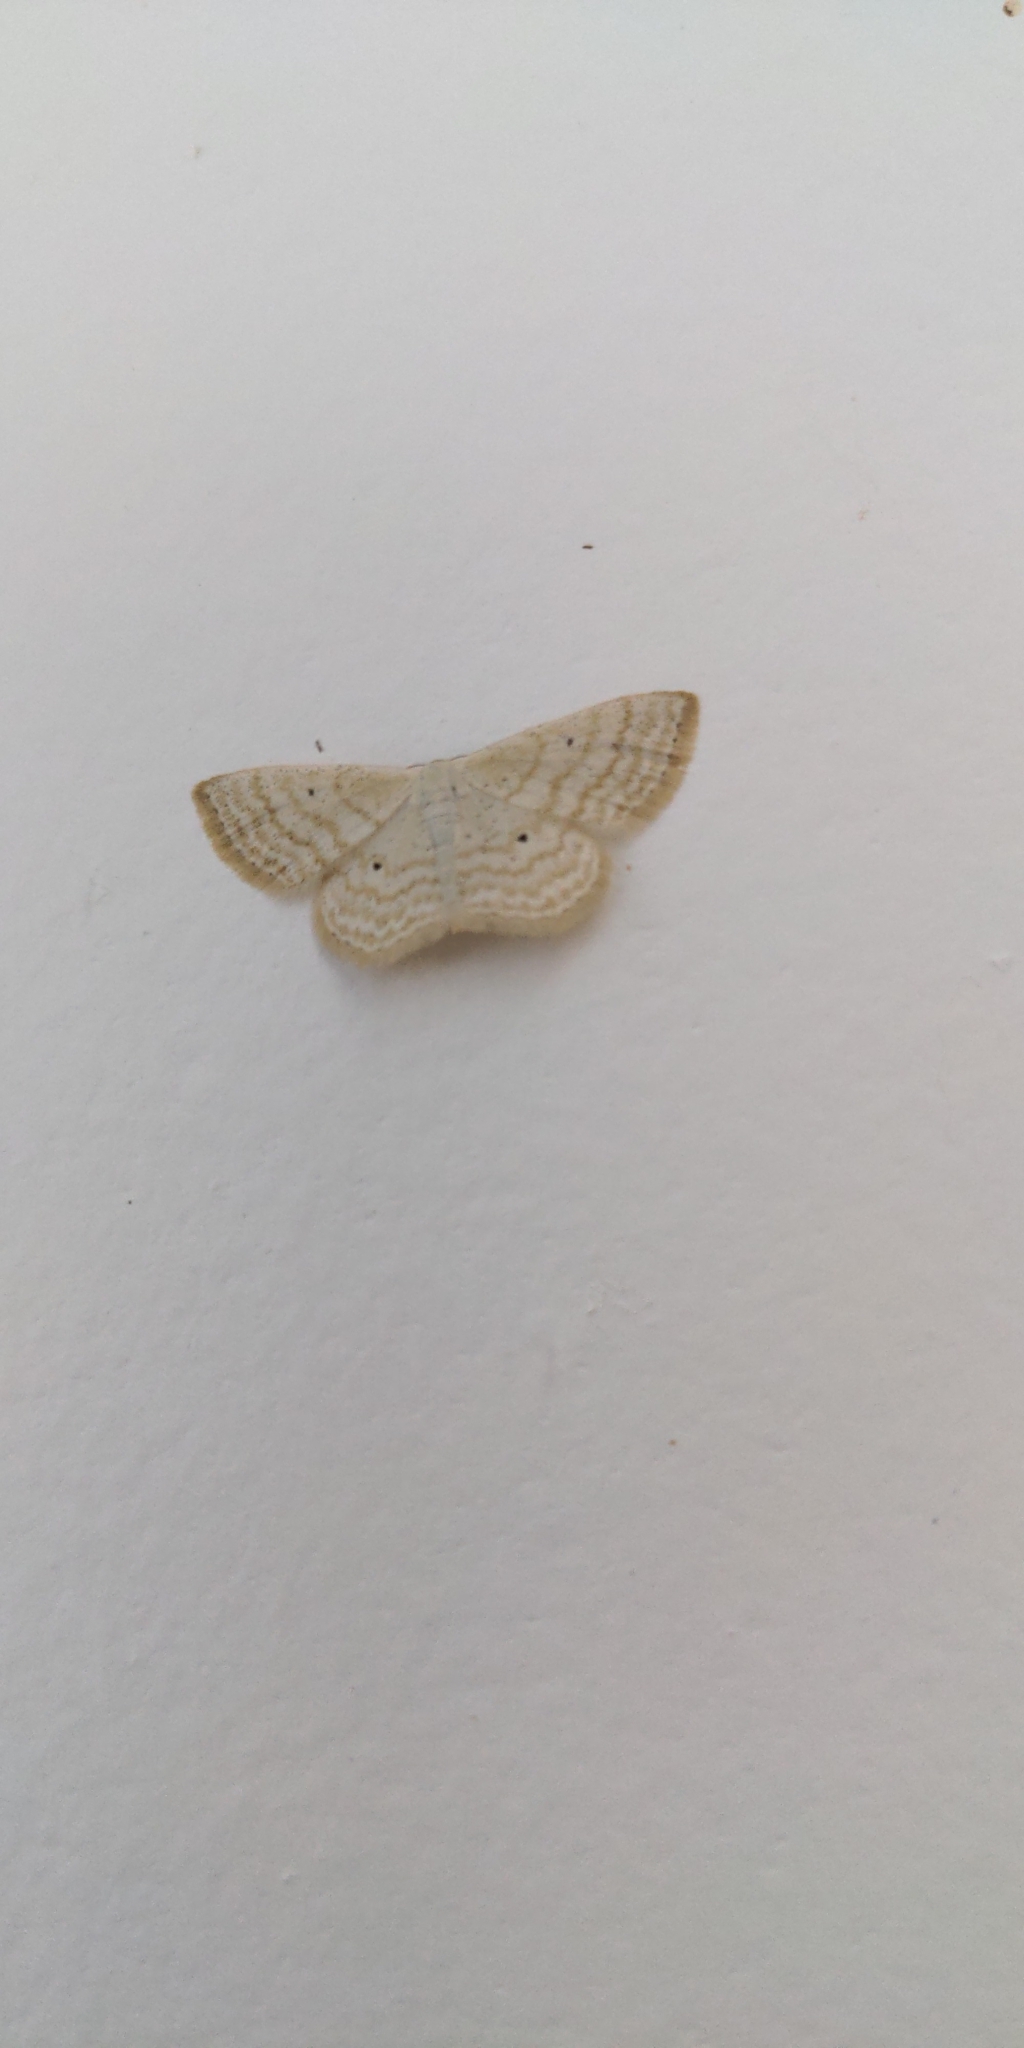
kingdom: Animalia
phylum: Arthropoda
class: Insecta
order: Lepidoptera
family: Geometridae
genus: Scopula
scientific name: Scopula immutata
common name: Lesser cream wave
